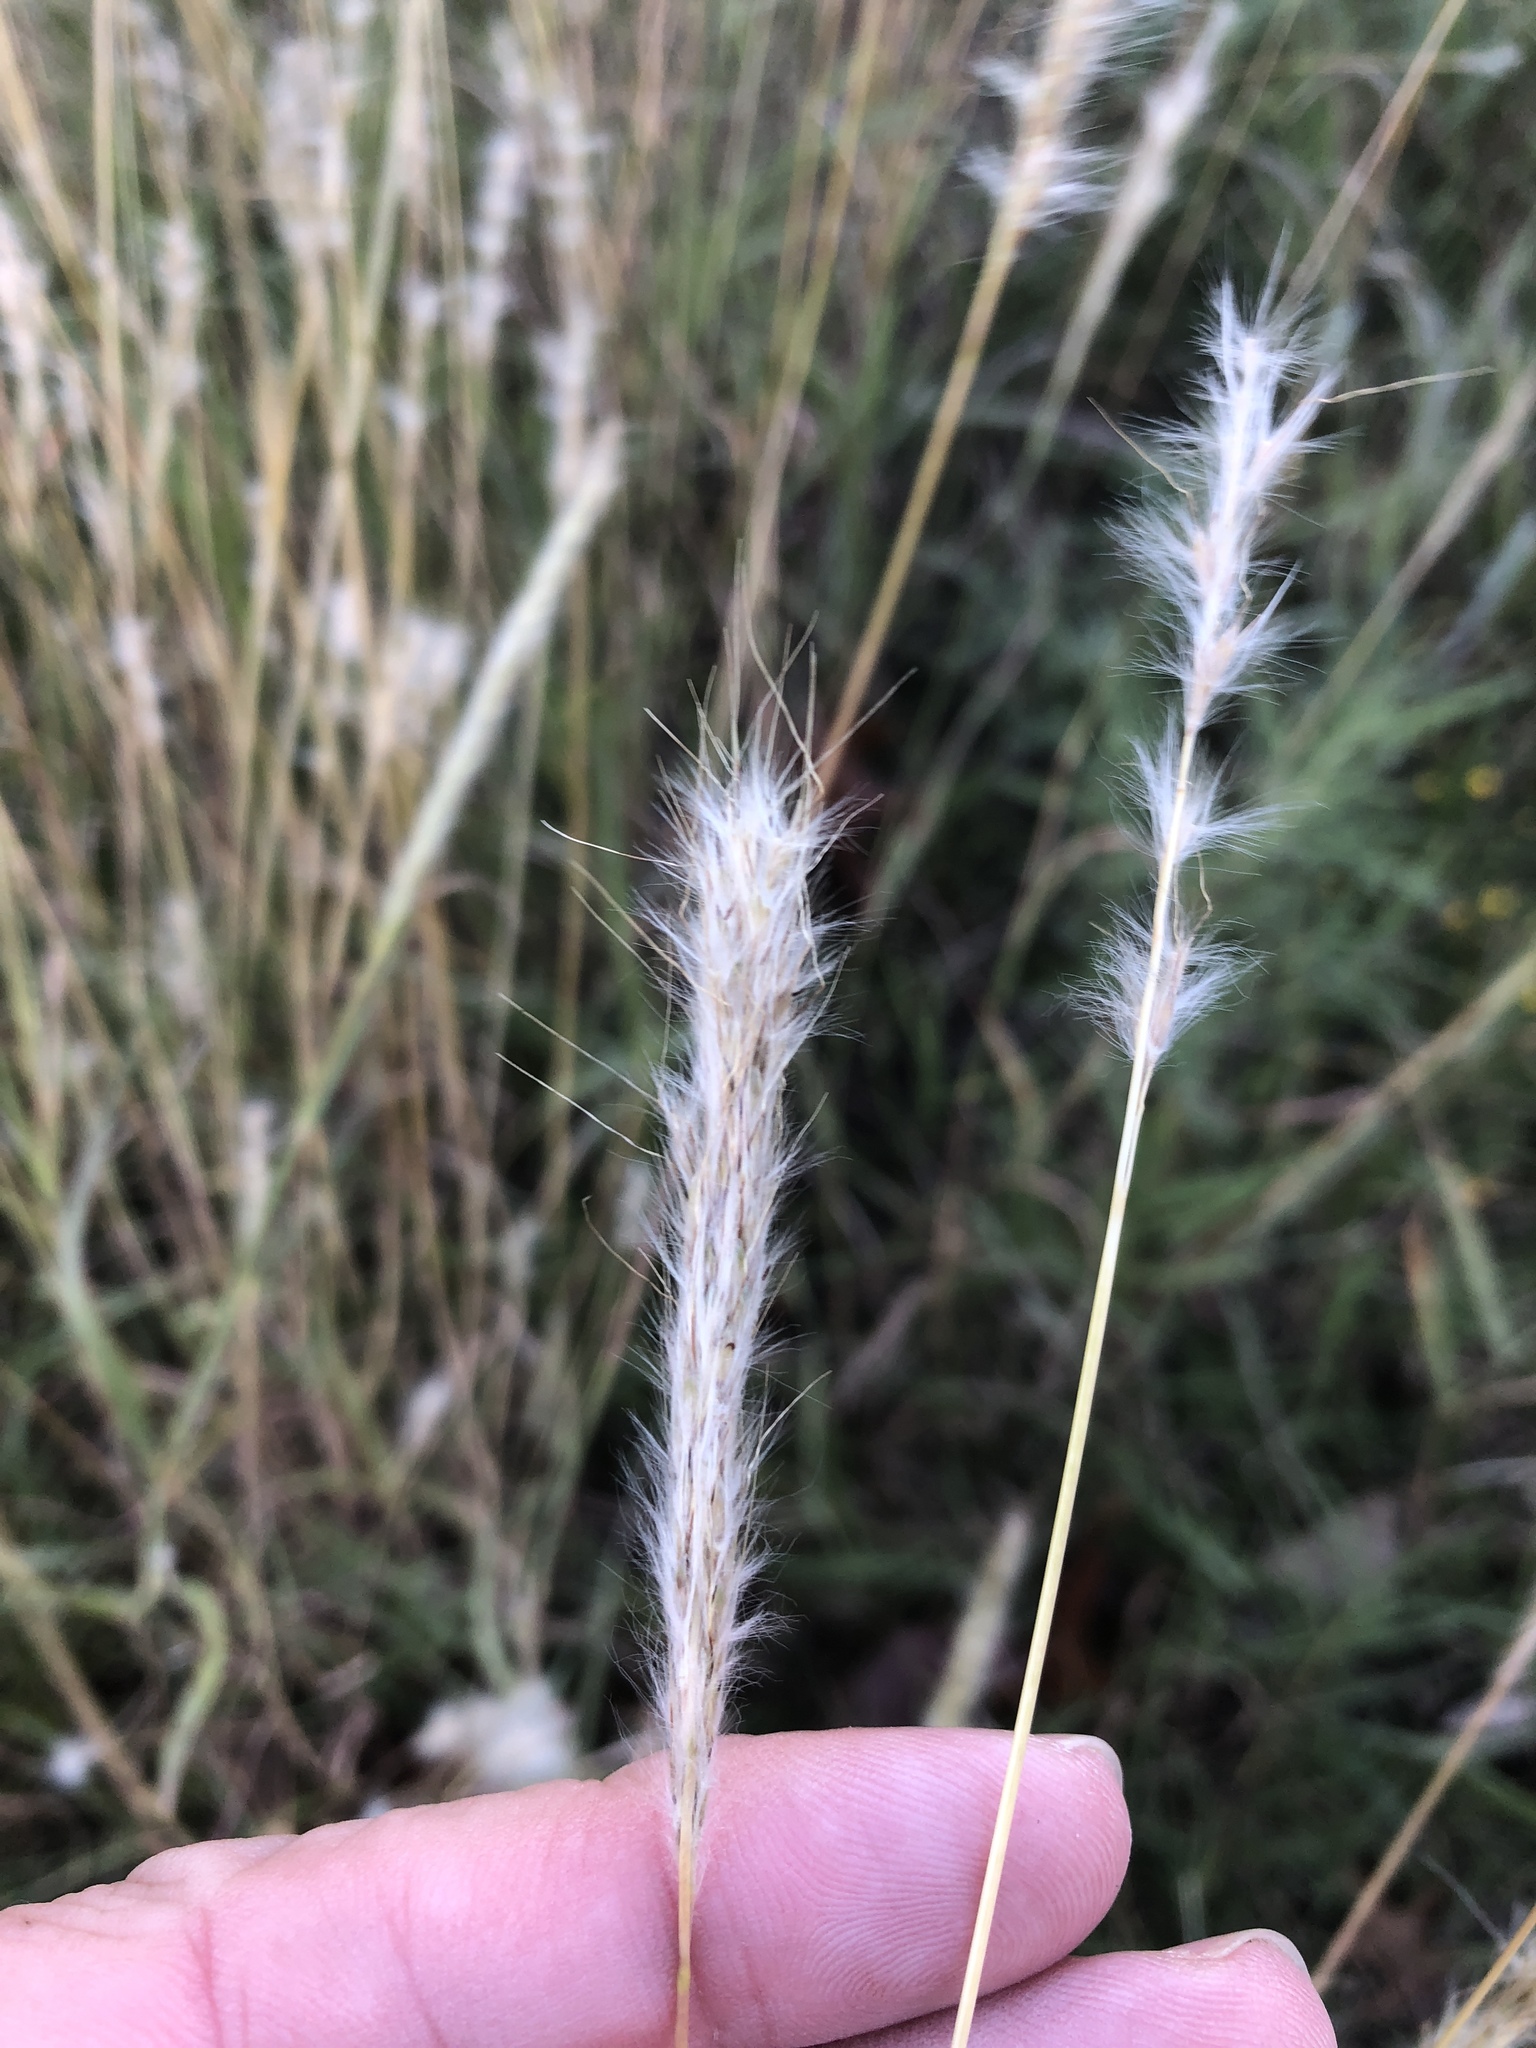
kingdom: Plantae
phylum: Tracheophyta
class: Liliopsida
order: Poales
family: Poaceae
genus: Bothriochloa
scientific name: Bothriochloa torreyana
